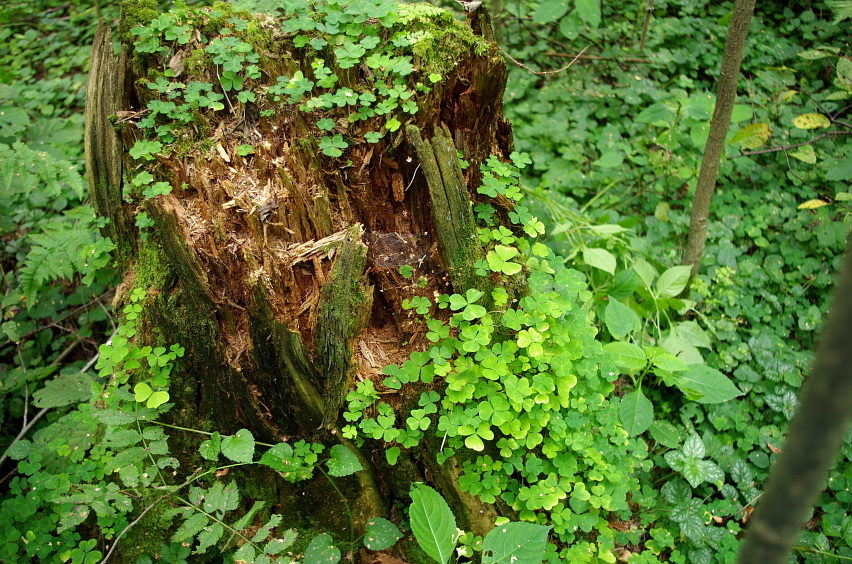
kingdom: Plantae
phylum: Tracheophyta
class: Magnoliopsida
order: Oxalidales
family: Oxalidaceae
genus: Oxalis
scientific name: Oxalis acetosella
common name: Wood-sorrel
